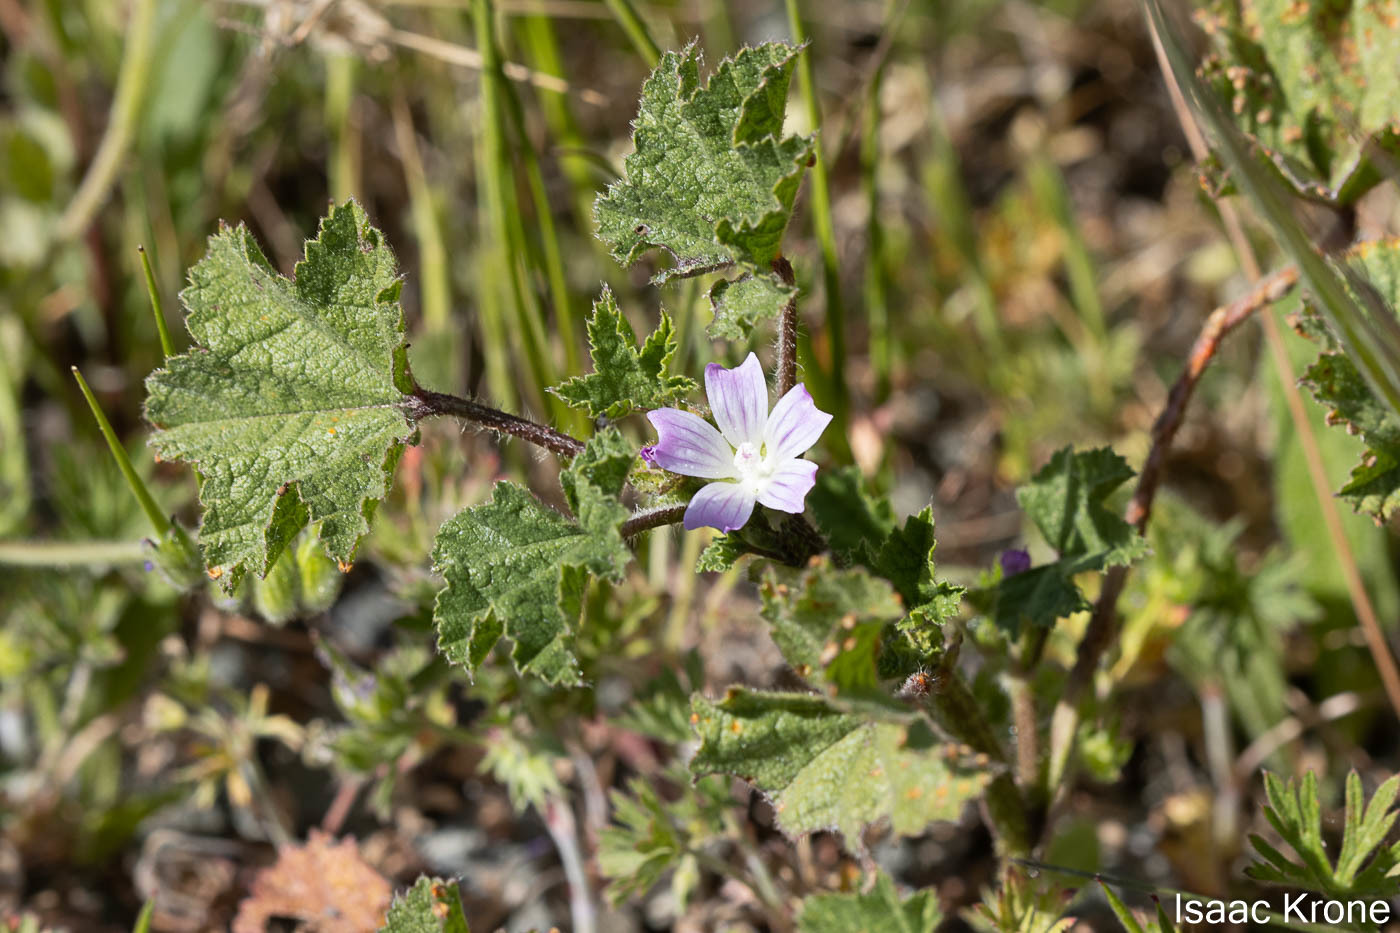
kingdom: Plantae
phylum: Tracheophyta
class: Magnoliopsida
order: Malvales
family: Malvaceae
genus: Malva
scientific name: Malva nicaeensis
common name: French mallow
